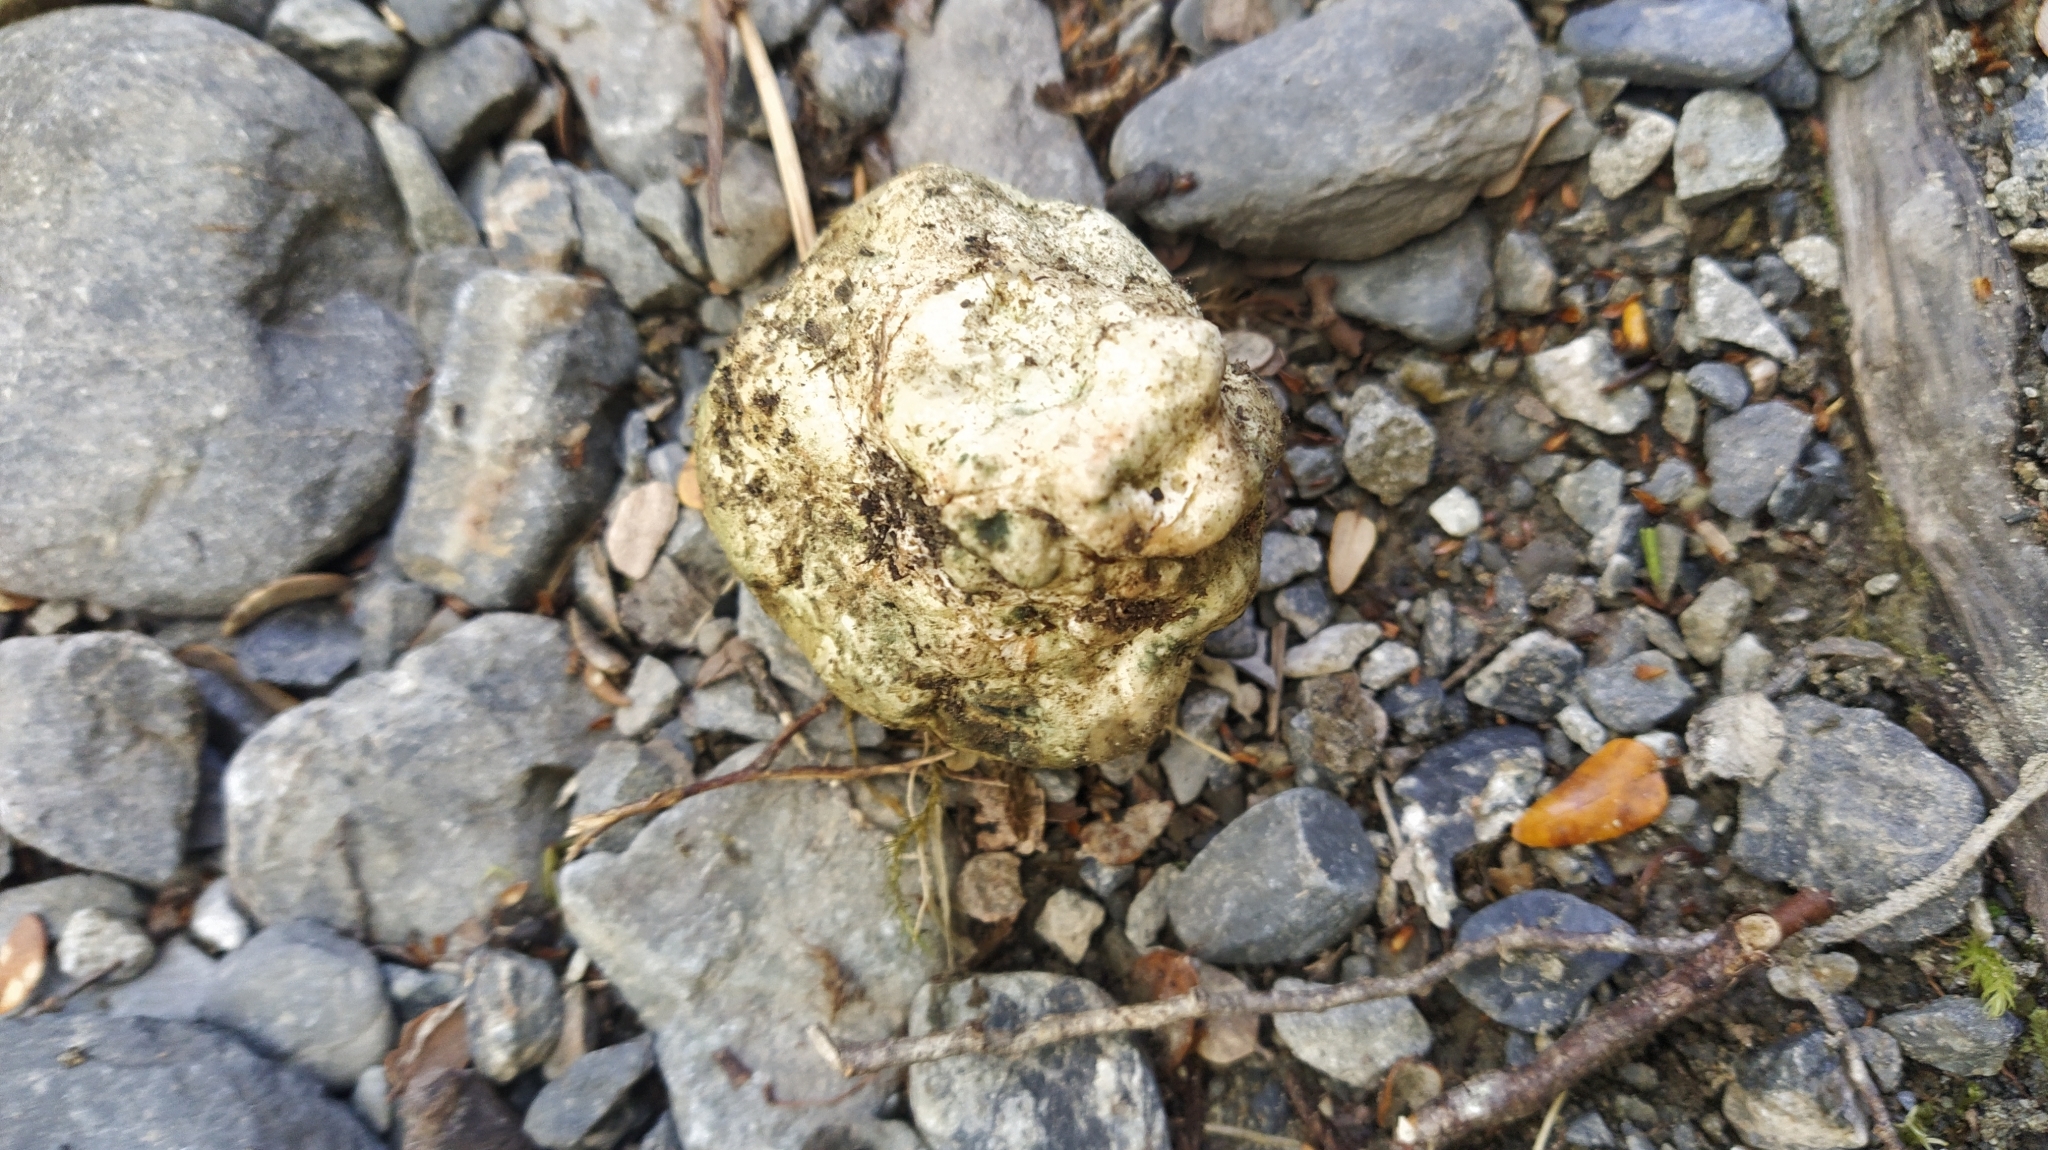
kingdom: Fungi
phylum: Basidiomycota
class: Agaricomycetes
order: Boletales
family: Boletaceae
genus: Leccinum
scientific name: Leccinum pachyderme
